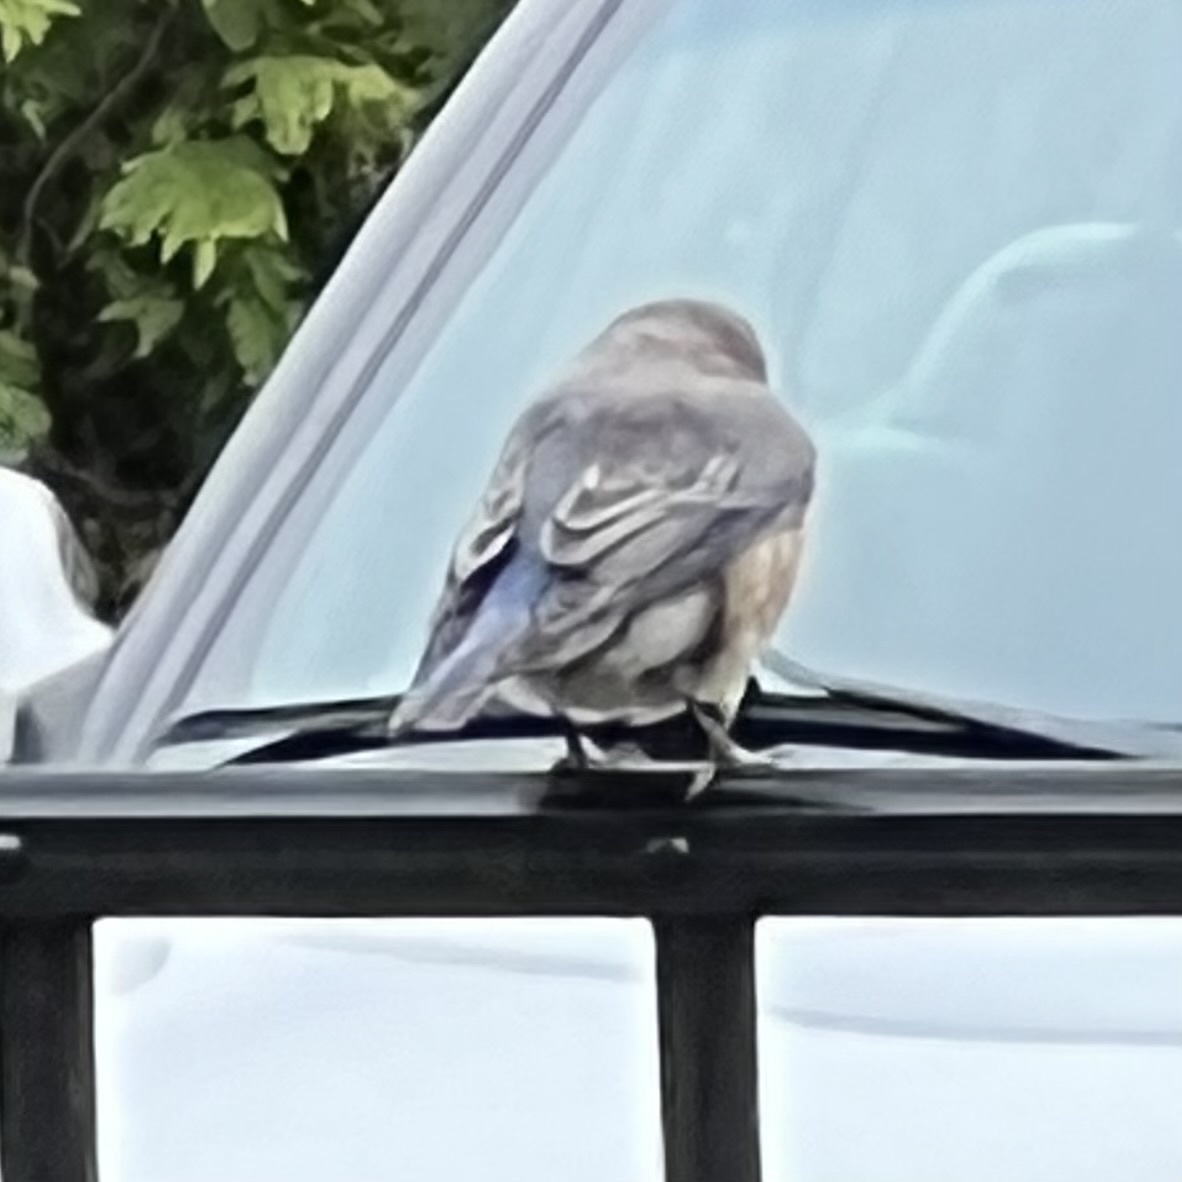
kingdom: Animalia
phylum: Chordata
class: Aves
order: Passeriformes
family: Turdidae
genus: Sialia
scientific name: Sialia sialis
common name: Eastern bluebird
